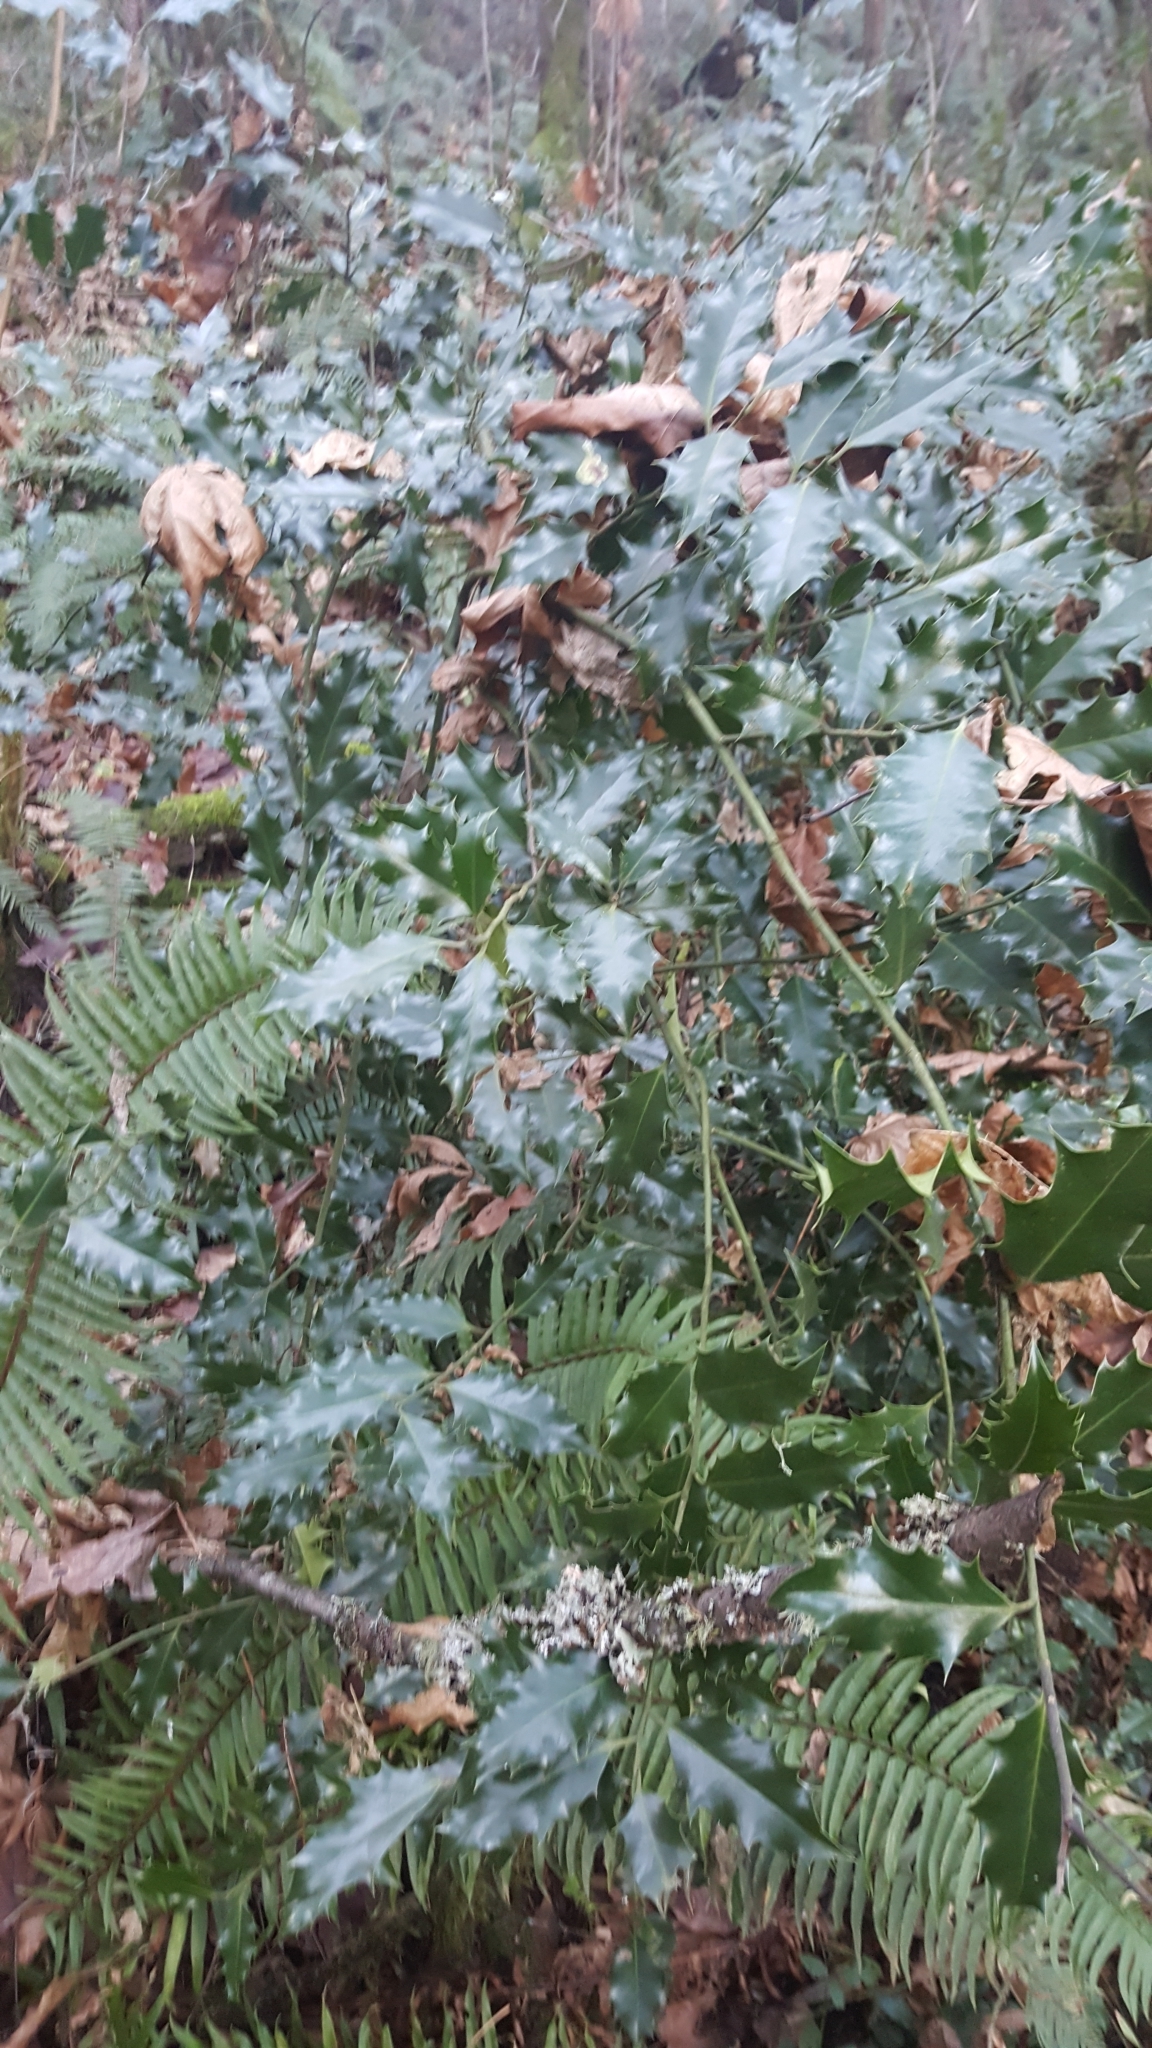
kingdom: Plantae
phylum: Tracheophyta
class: Magnoliopsida
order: Aquifoliales
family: Aquifoliaceae
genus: Ilex
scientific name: Ilex aquifolium
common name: English holly
